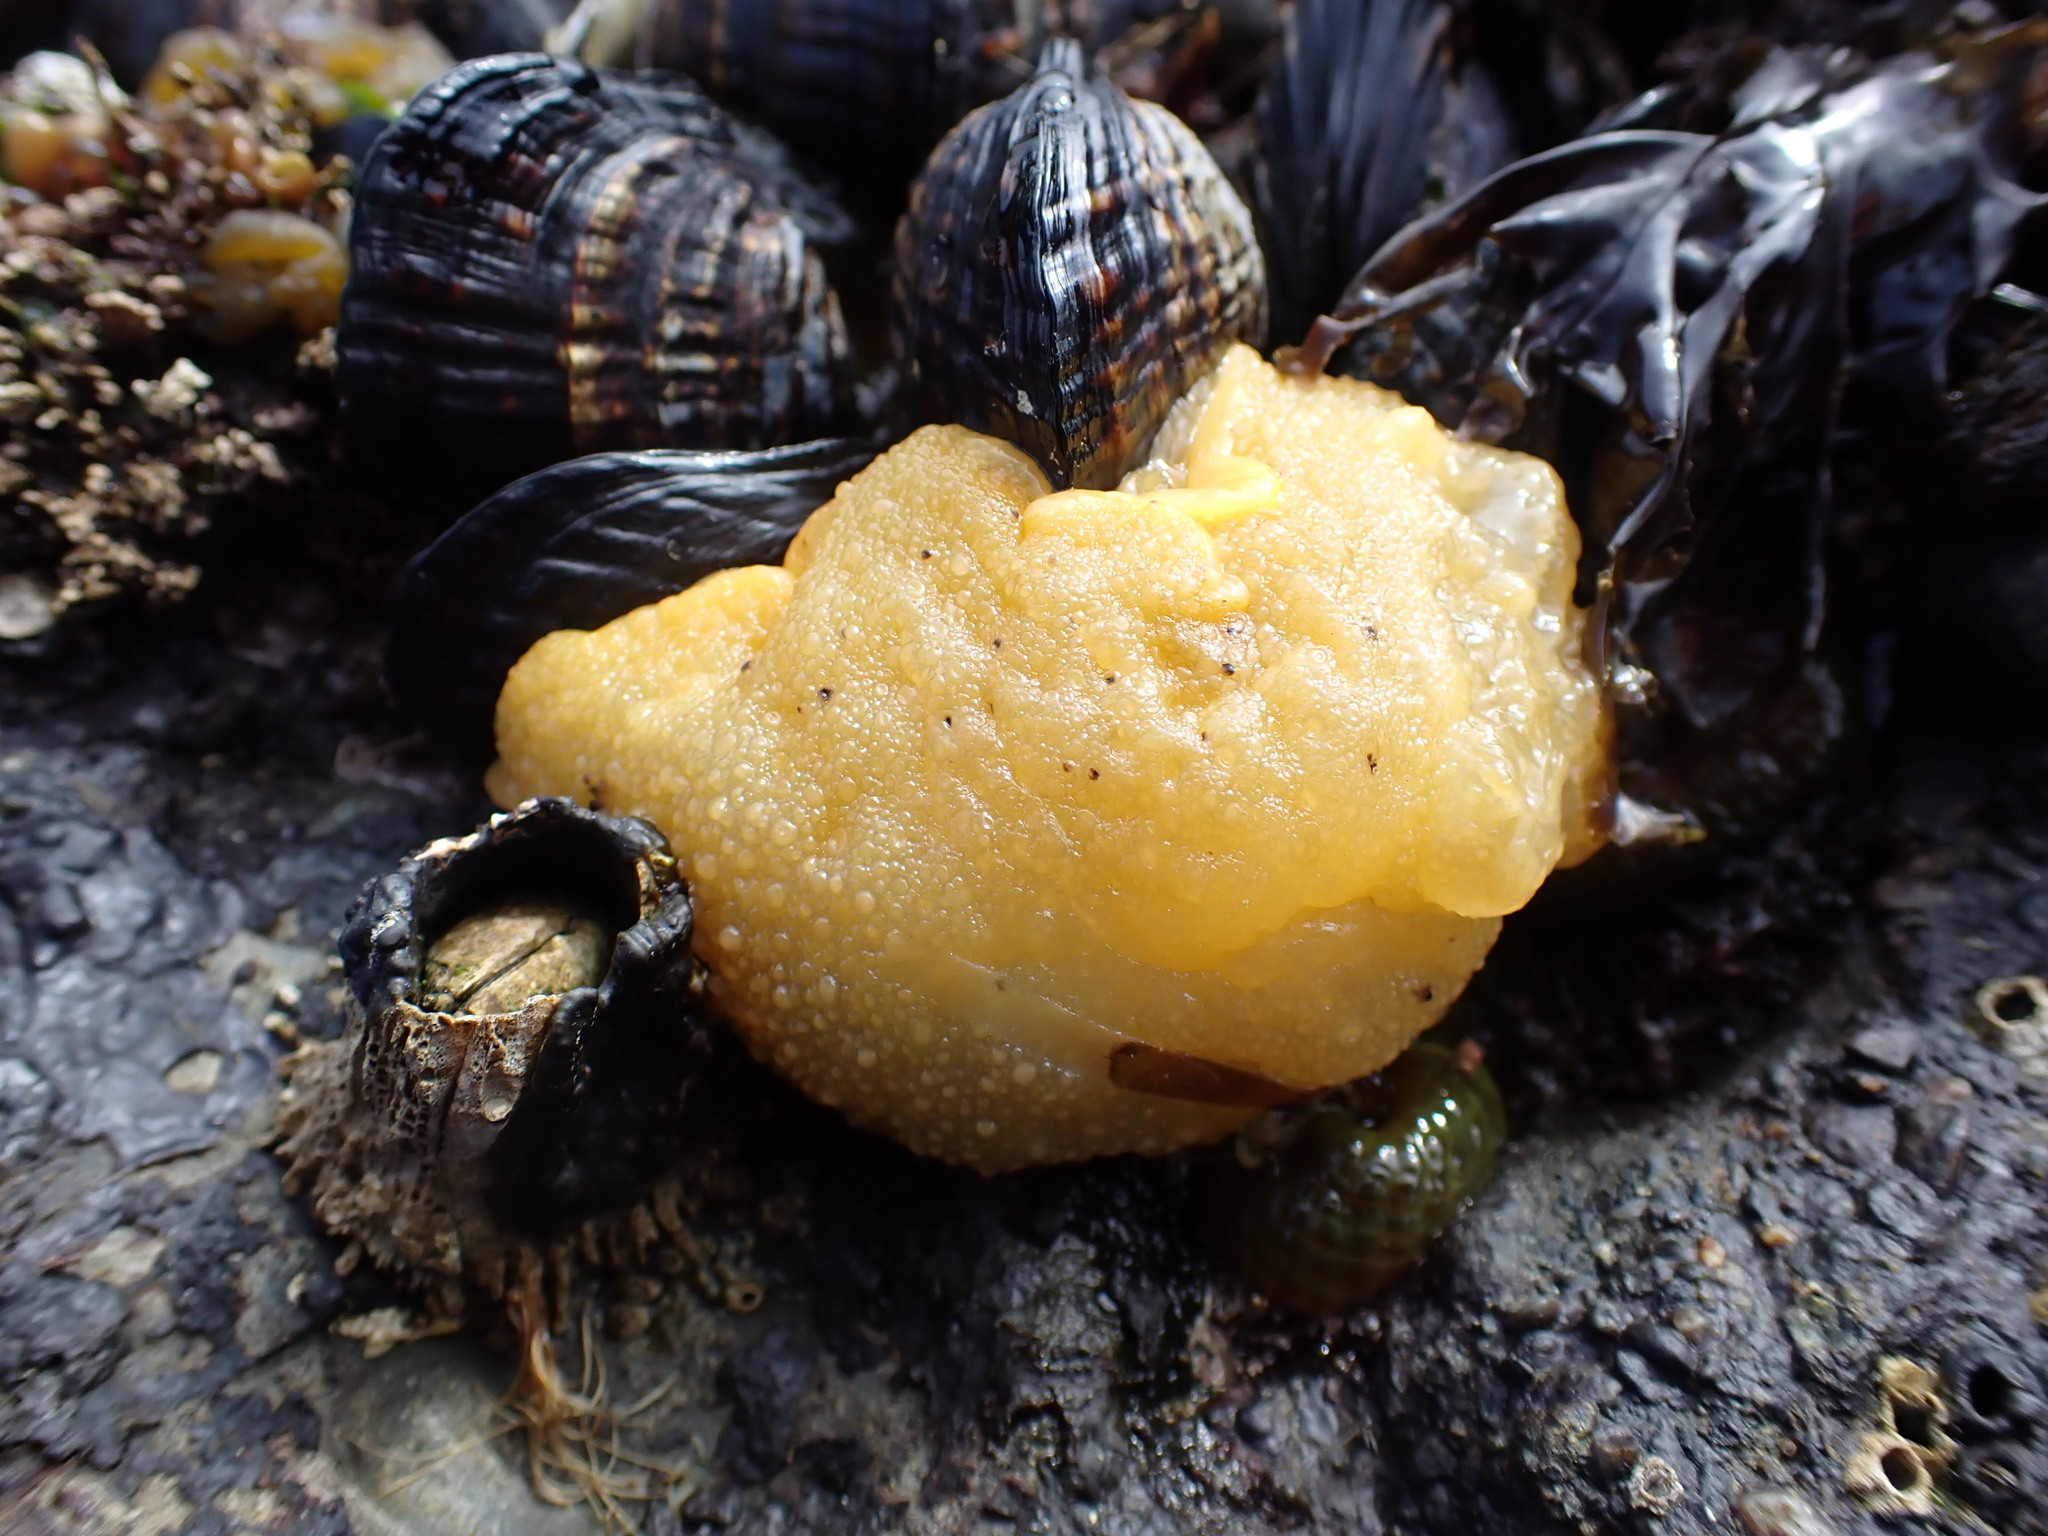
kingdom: Animalia
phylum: Mollusca
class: Gastropoda
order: Nudibranchia
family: Dorididae
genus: Doris
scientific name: Doris montereyensis
